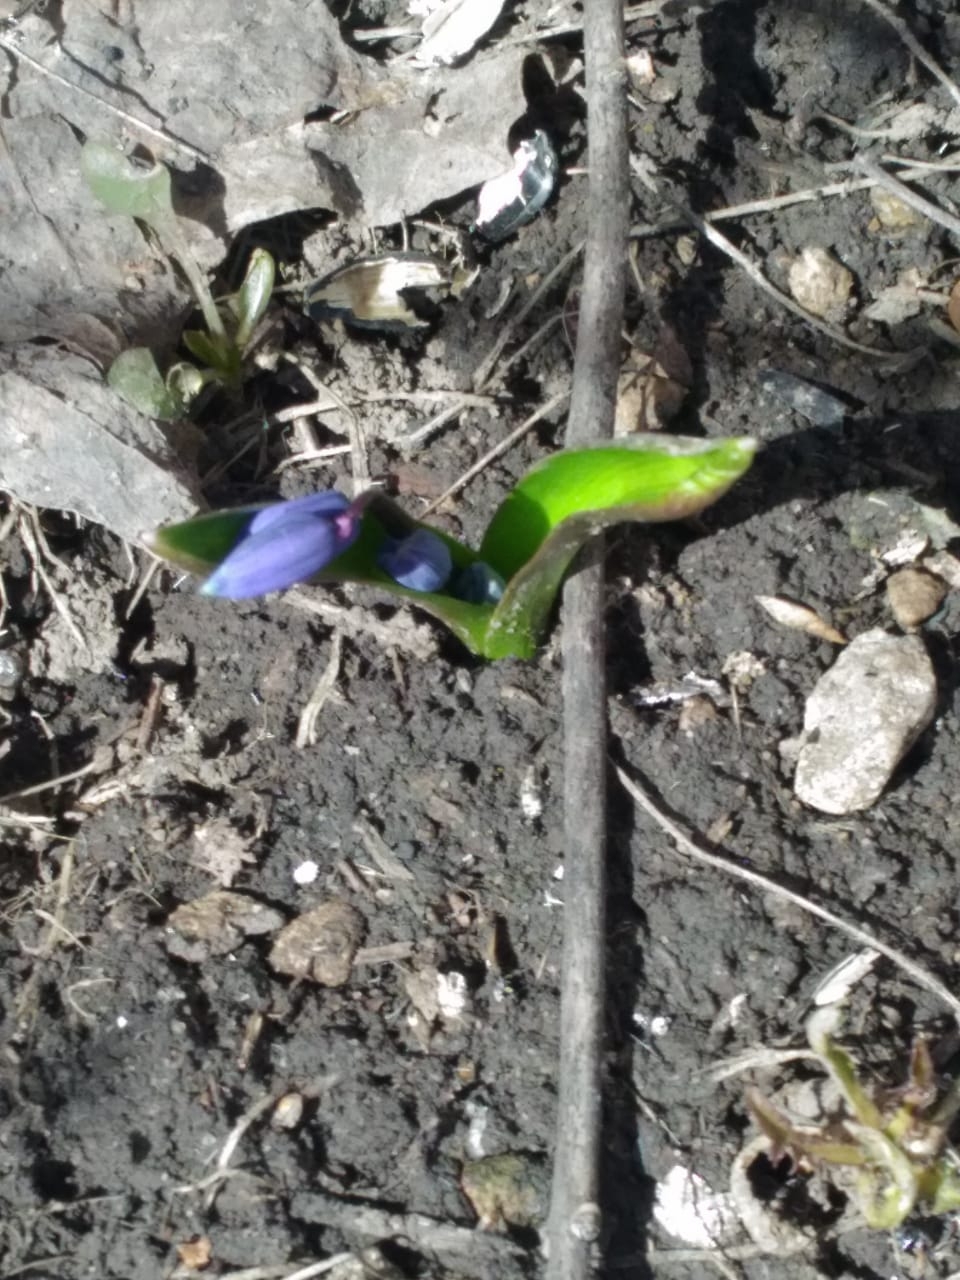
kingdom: Plantae
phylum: Tracheophyta
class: Liliopsida
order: Asparagales
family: Asparagaceae
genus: Scilla
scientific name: Scilla siberica
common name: Siberian squill
